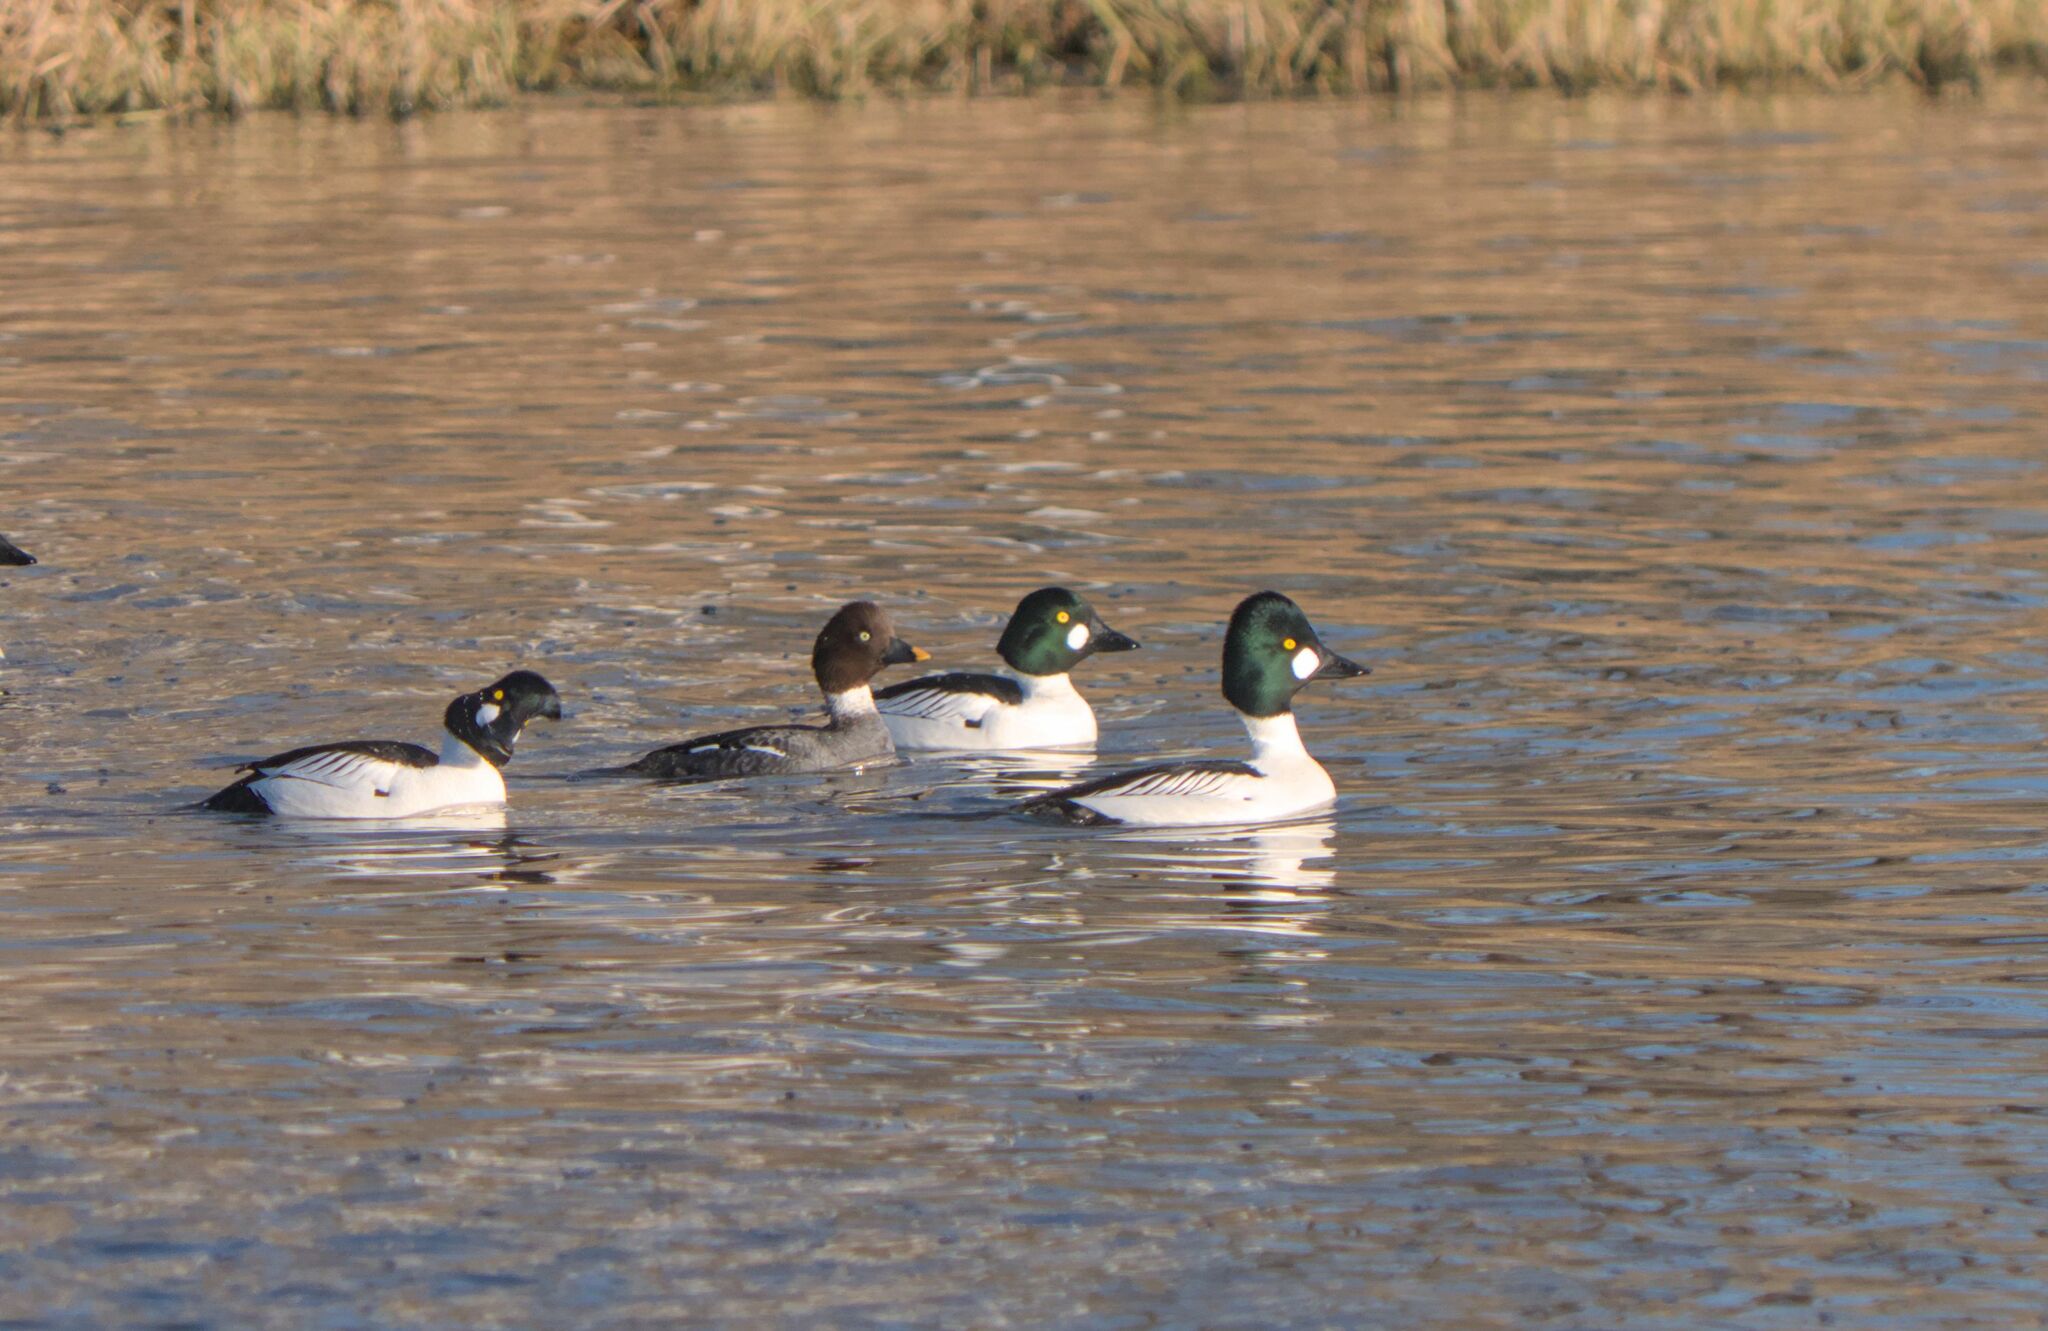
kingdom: Animalia
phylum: Chordata
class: Aves
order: Anseriformes
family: Anatidae
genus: Bucephala
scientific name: Bucephala clangula
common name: Common goldeneye
